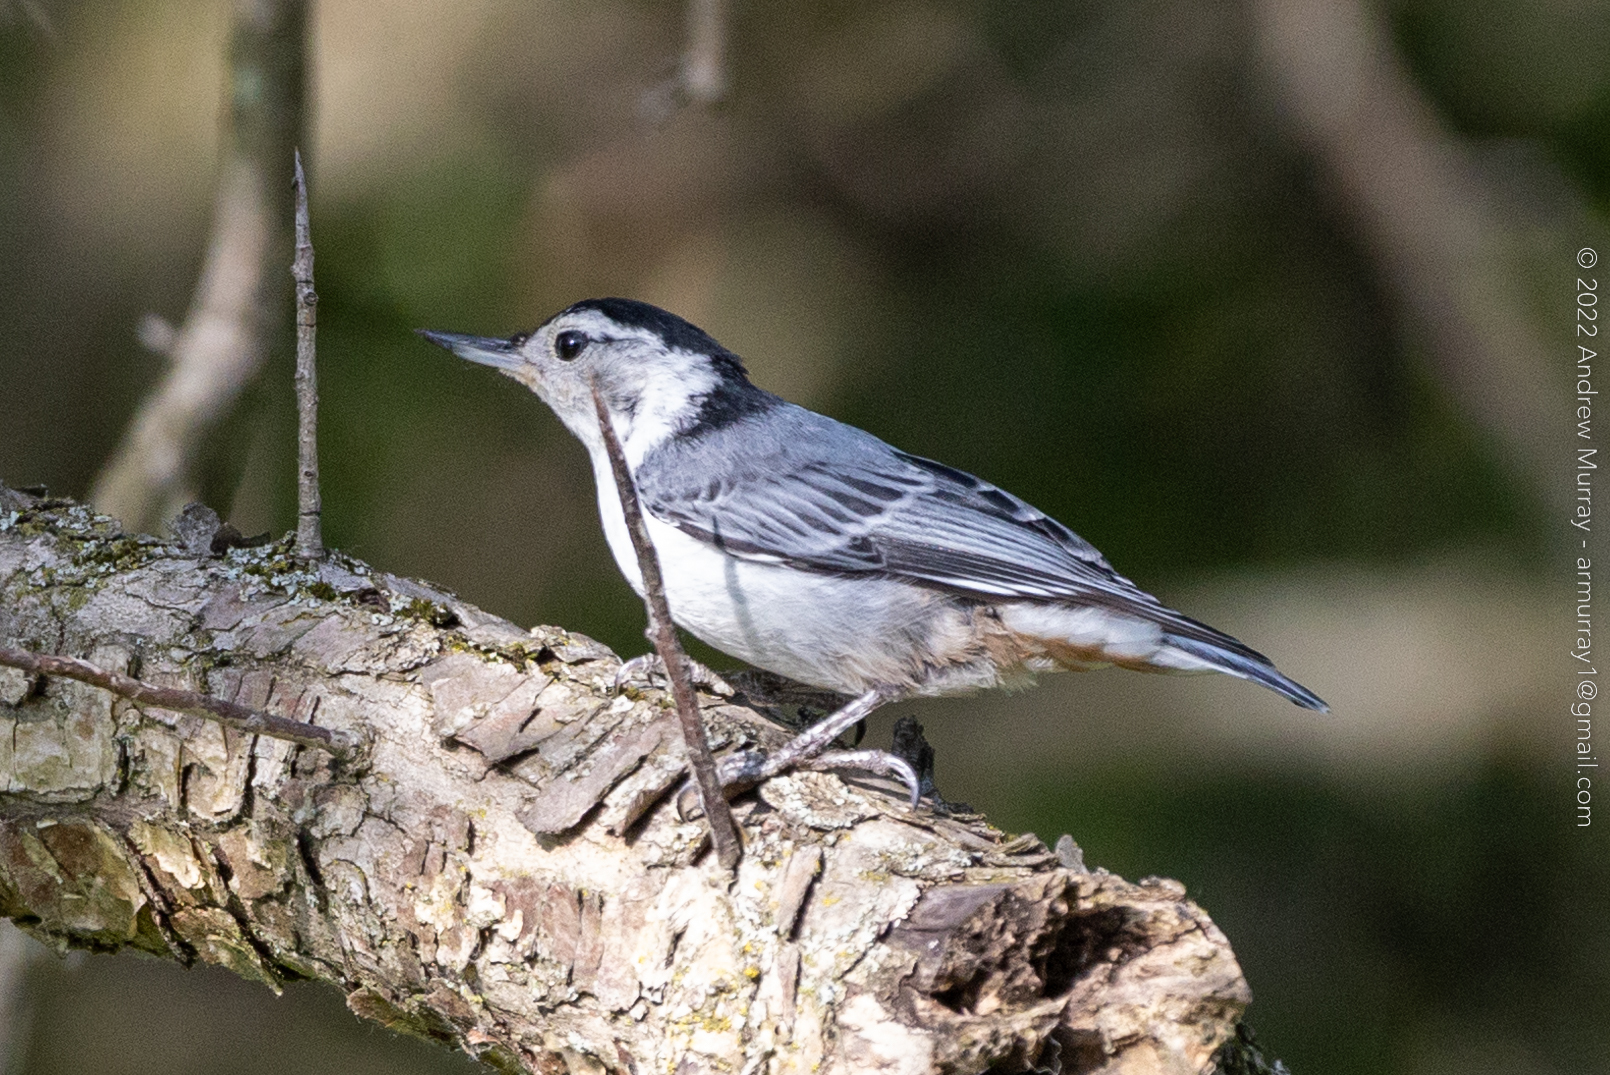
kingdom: Animalia
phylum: Chordata
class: Aves
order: Passeriformes
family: Sittidae
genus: Sitta
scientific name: Sitta carolinensis
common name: White-breasted nuthatch
